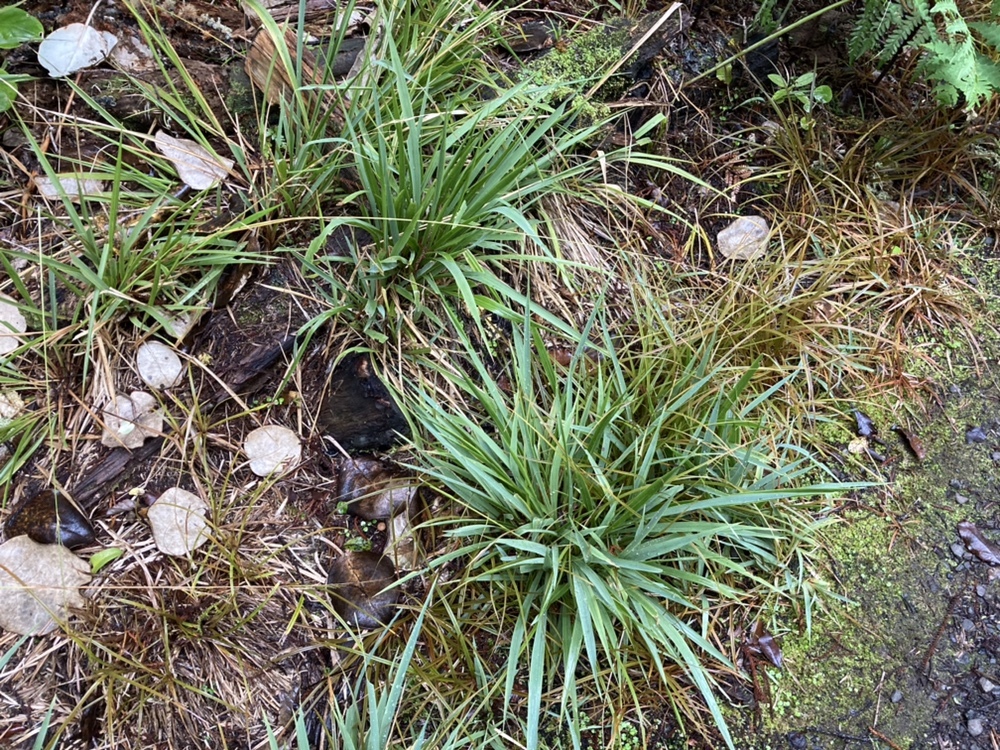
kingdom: Plantae
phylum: Tracheophyta
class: Liliopsida
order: Poales
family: Poaceae
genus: Ehrharta
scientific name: Ehrharta diplax
